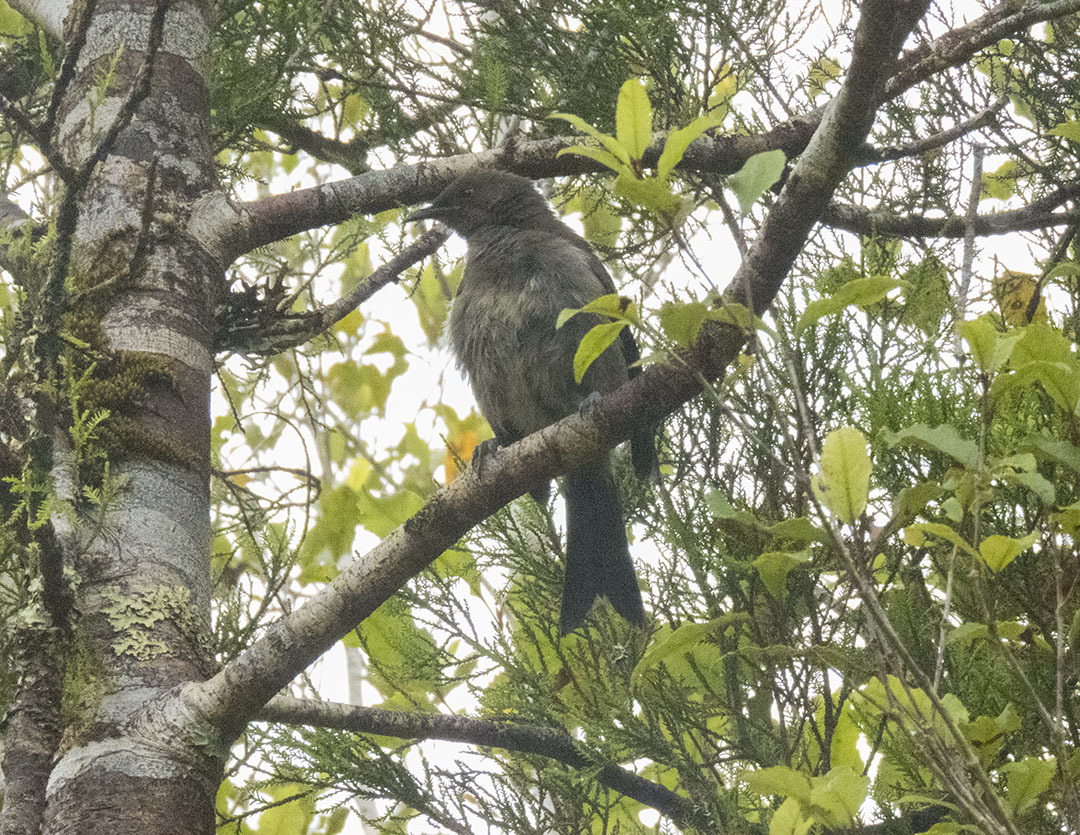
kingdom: Animalia
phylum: Chordata
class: Aves
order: Passeriformes
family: Meliphagidae
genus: Anthornis
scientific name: Anthornis melanura
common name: New zealand bellbird
